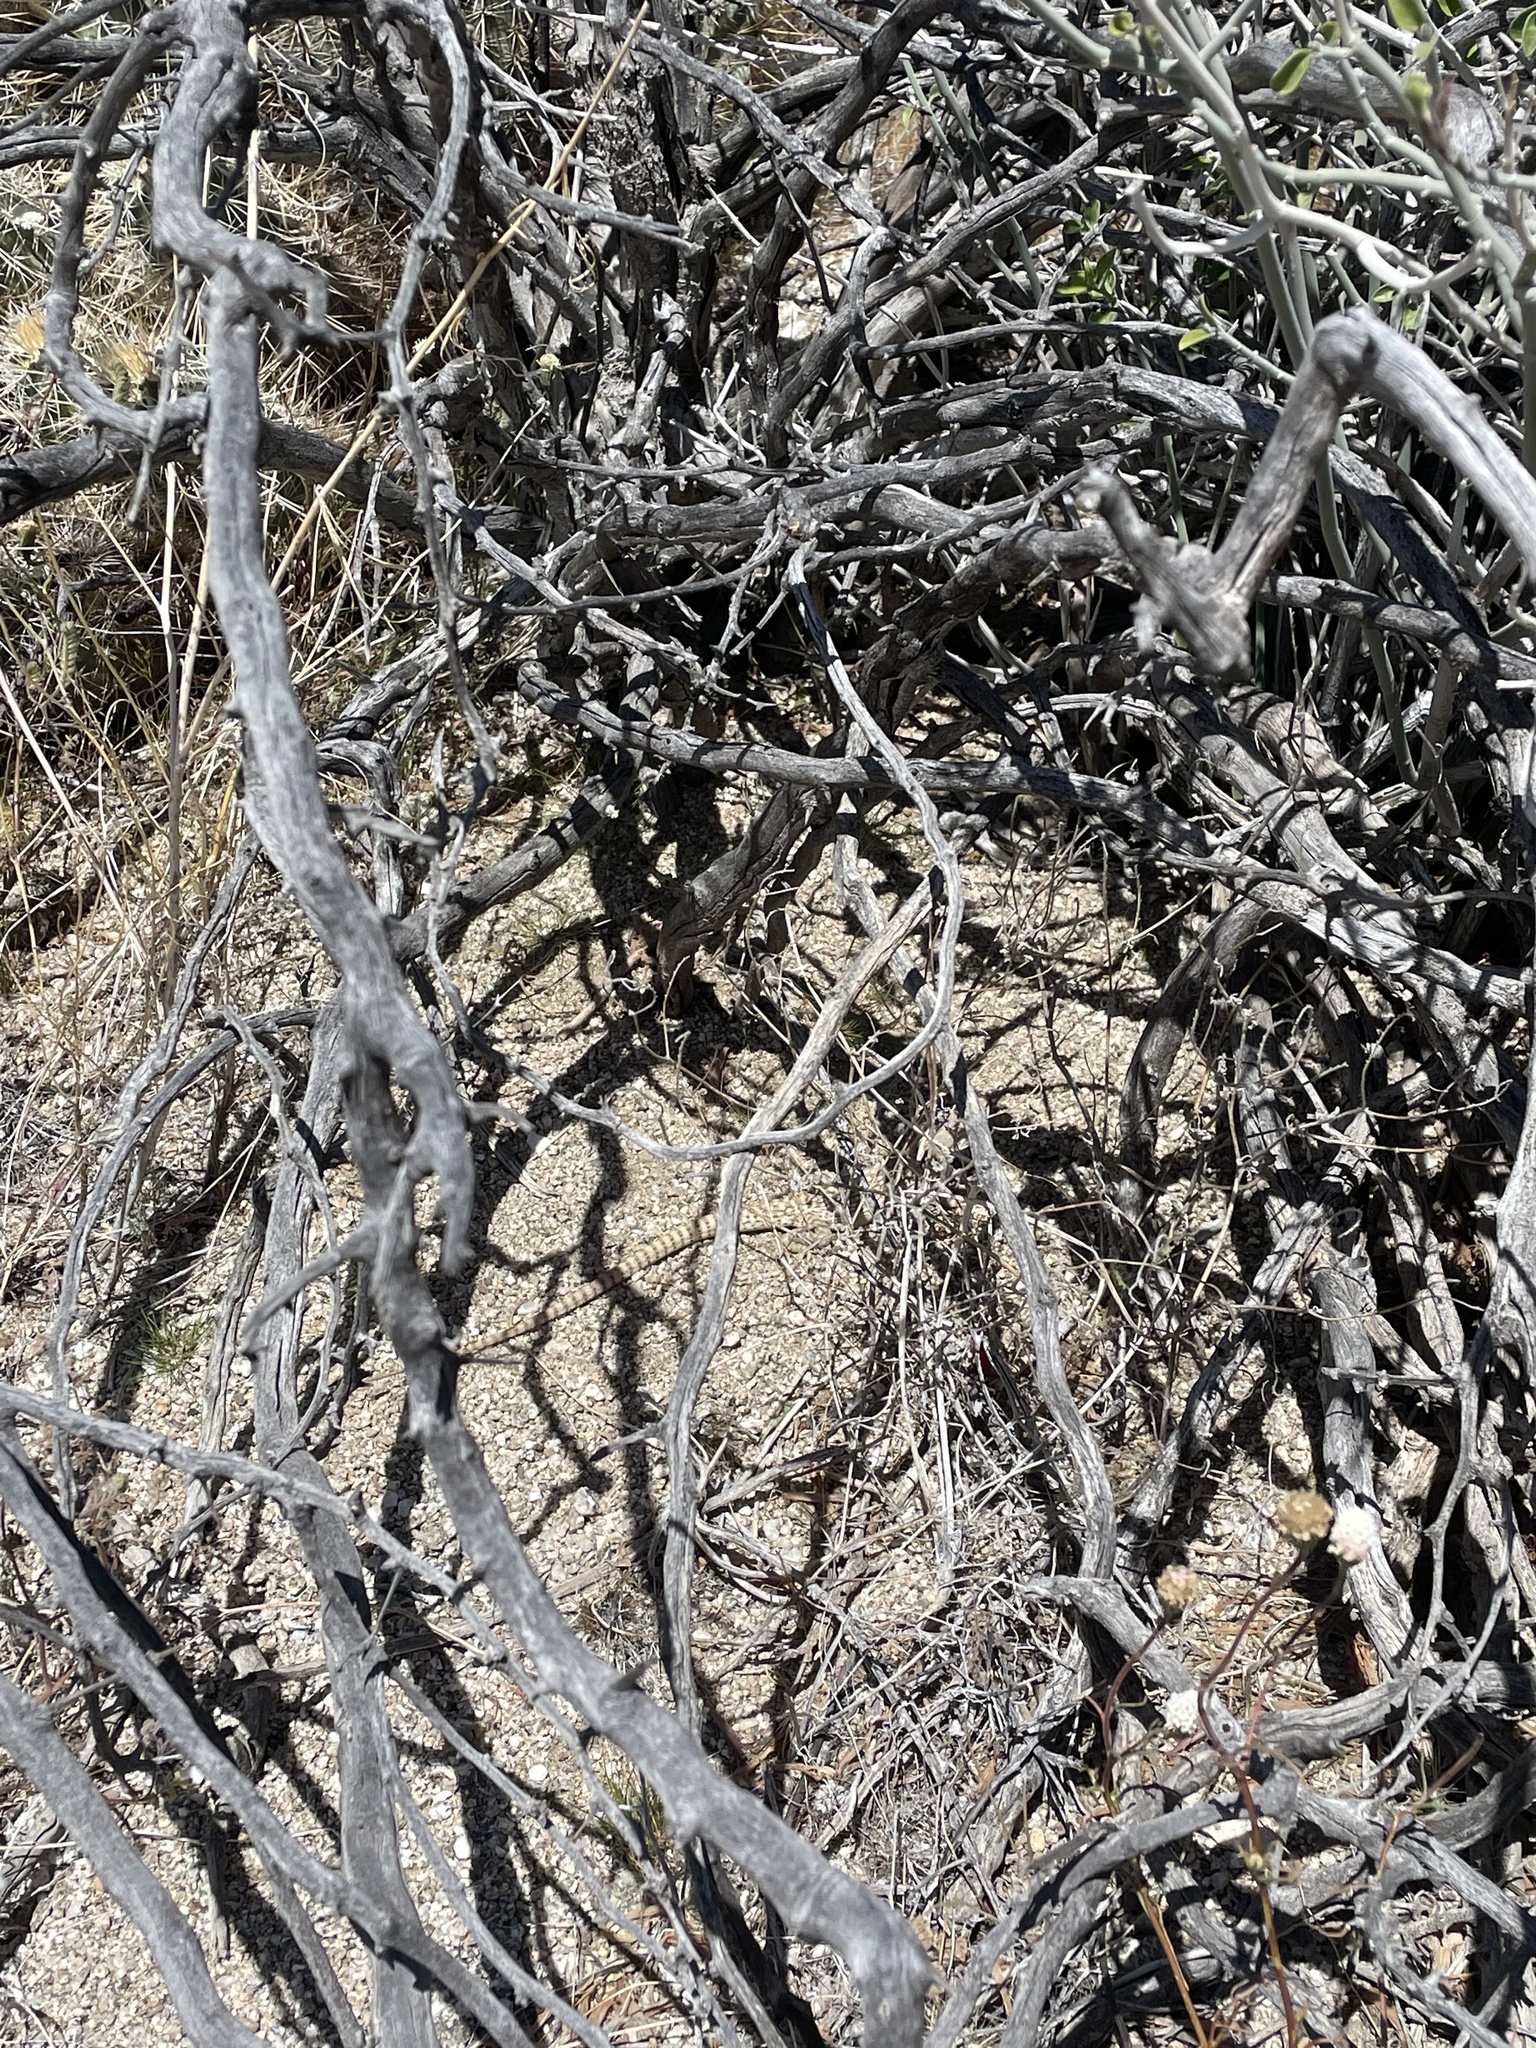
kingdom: Animalia
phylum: Chordata
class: Squamata
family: Iguanidae
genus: Dipsosaurus
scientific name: Dipsosaurus dorsalis
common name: Desert iguana
